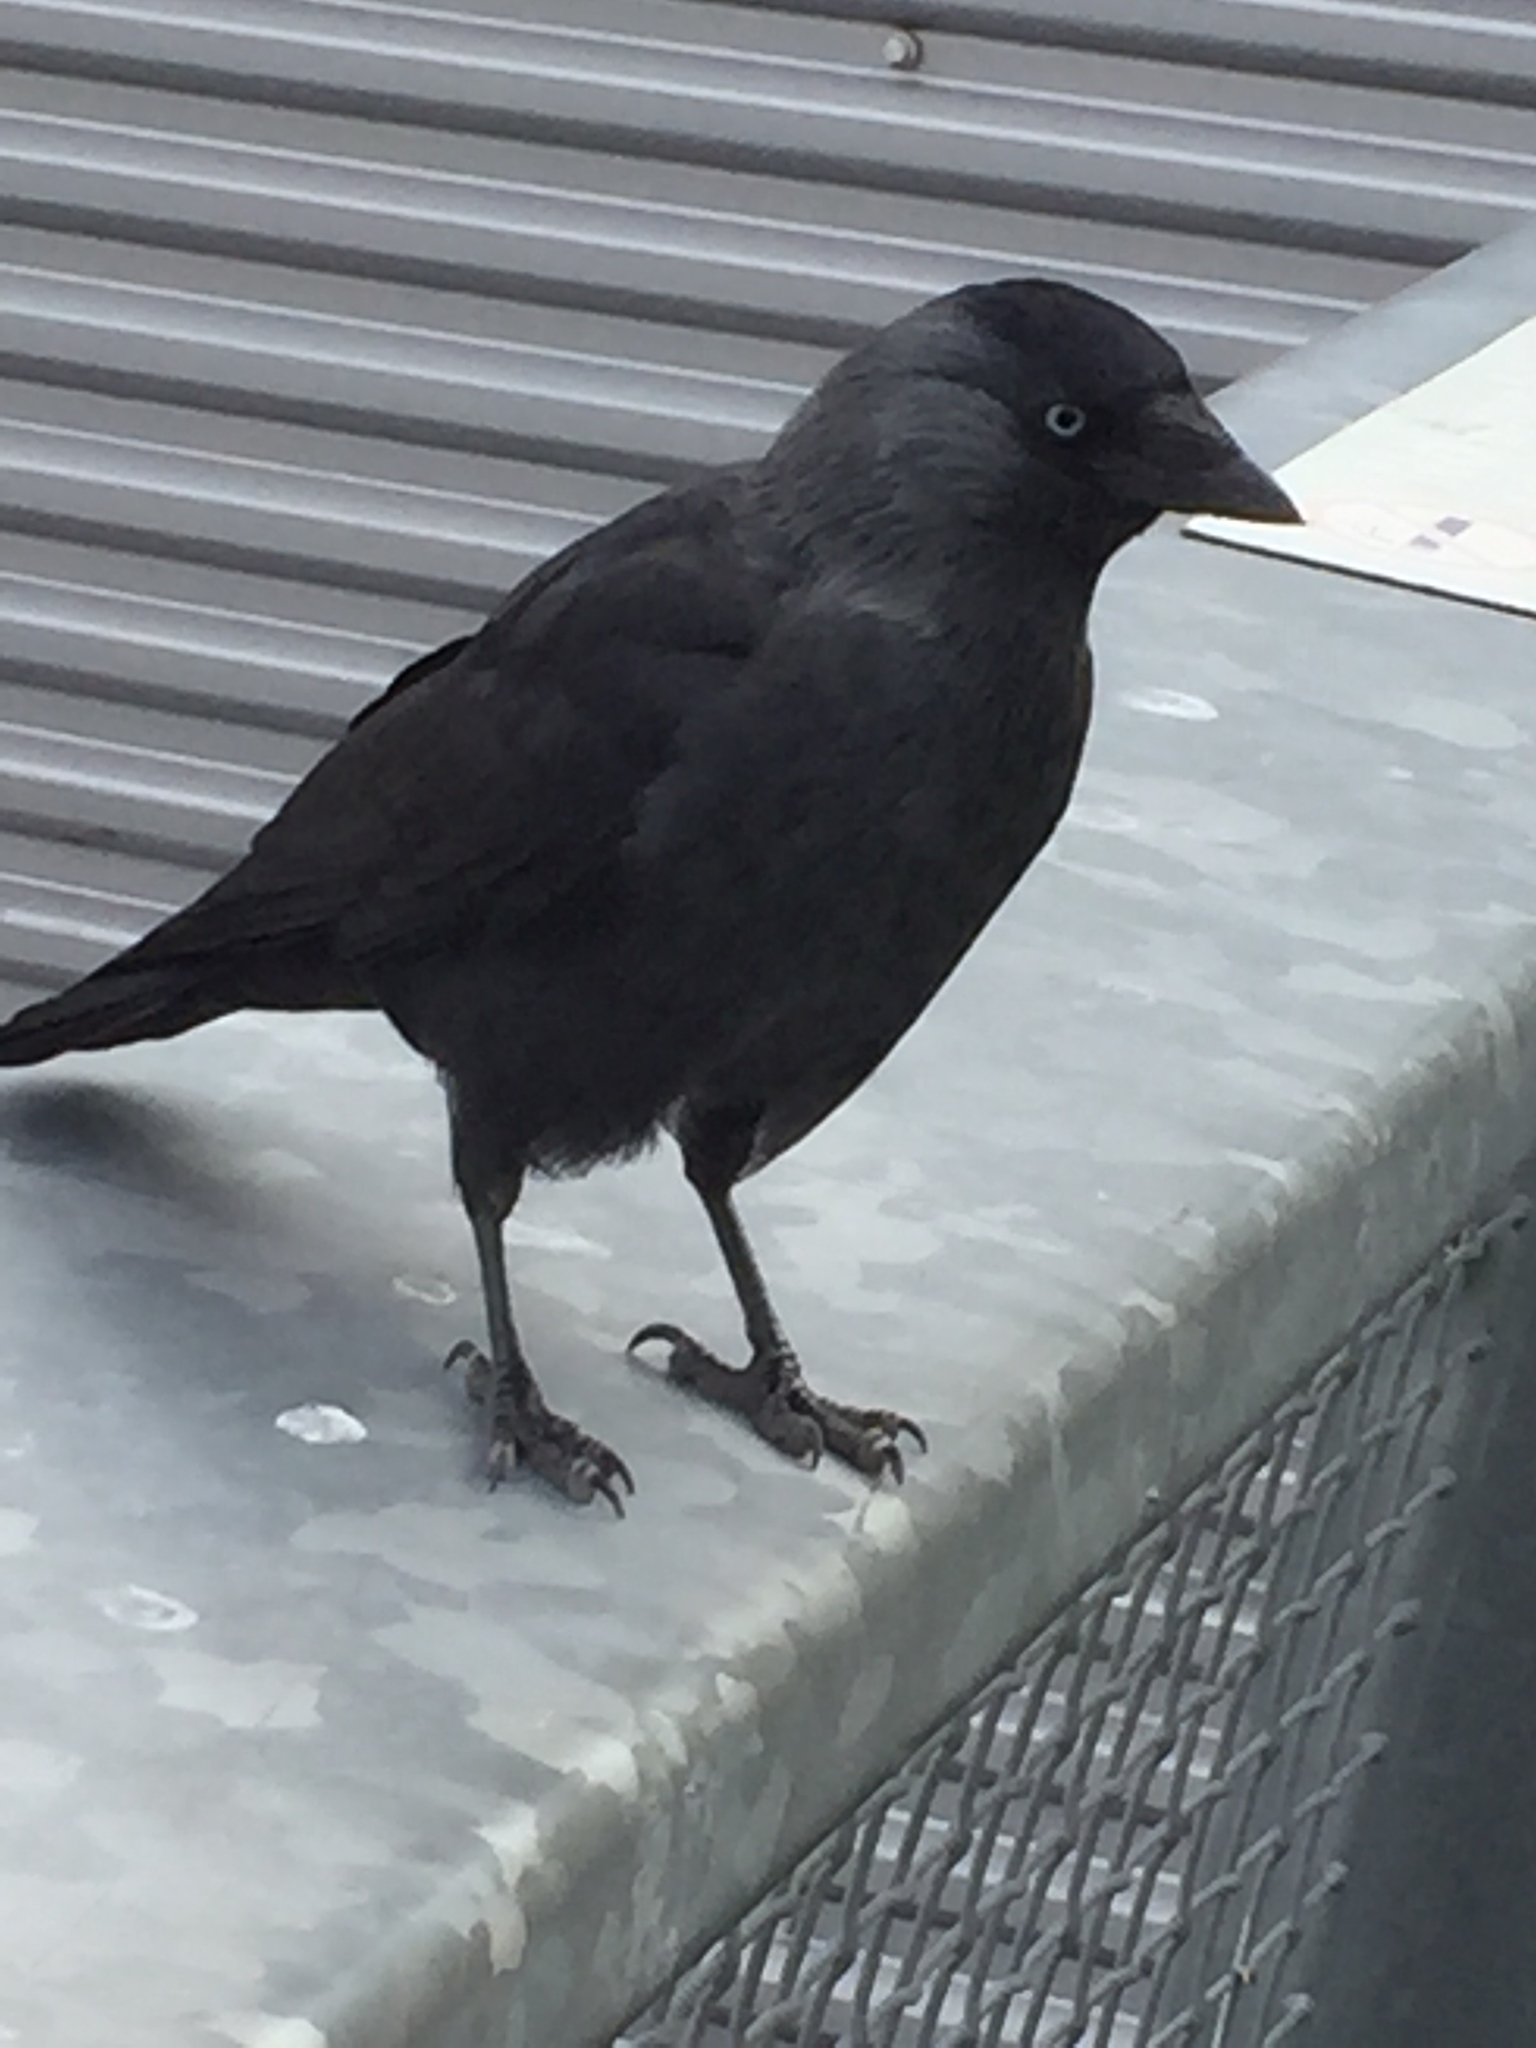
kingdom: Animalia
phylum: Chordata
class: Aves
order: Passeriformes
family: Corvidae
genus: Coloeus
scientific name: Coloeus monedula
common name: Western jackdaw
